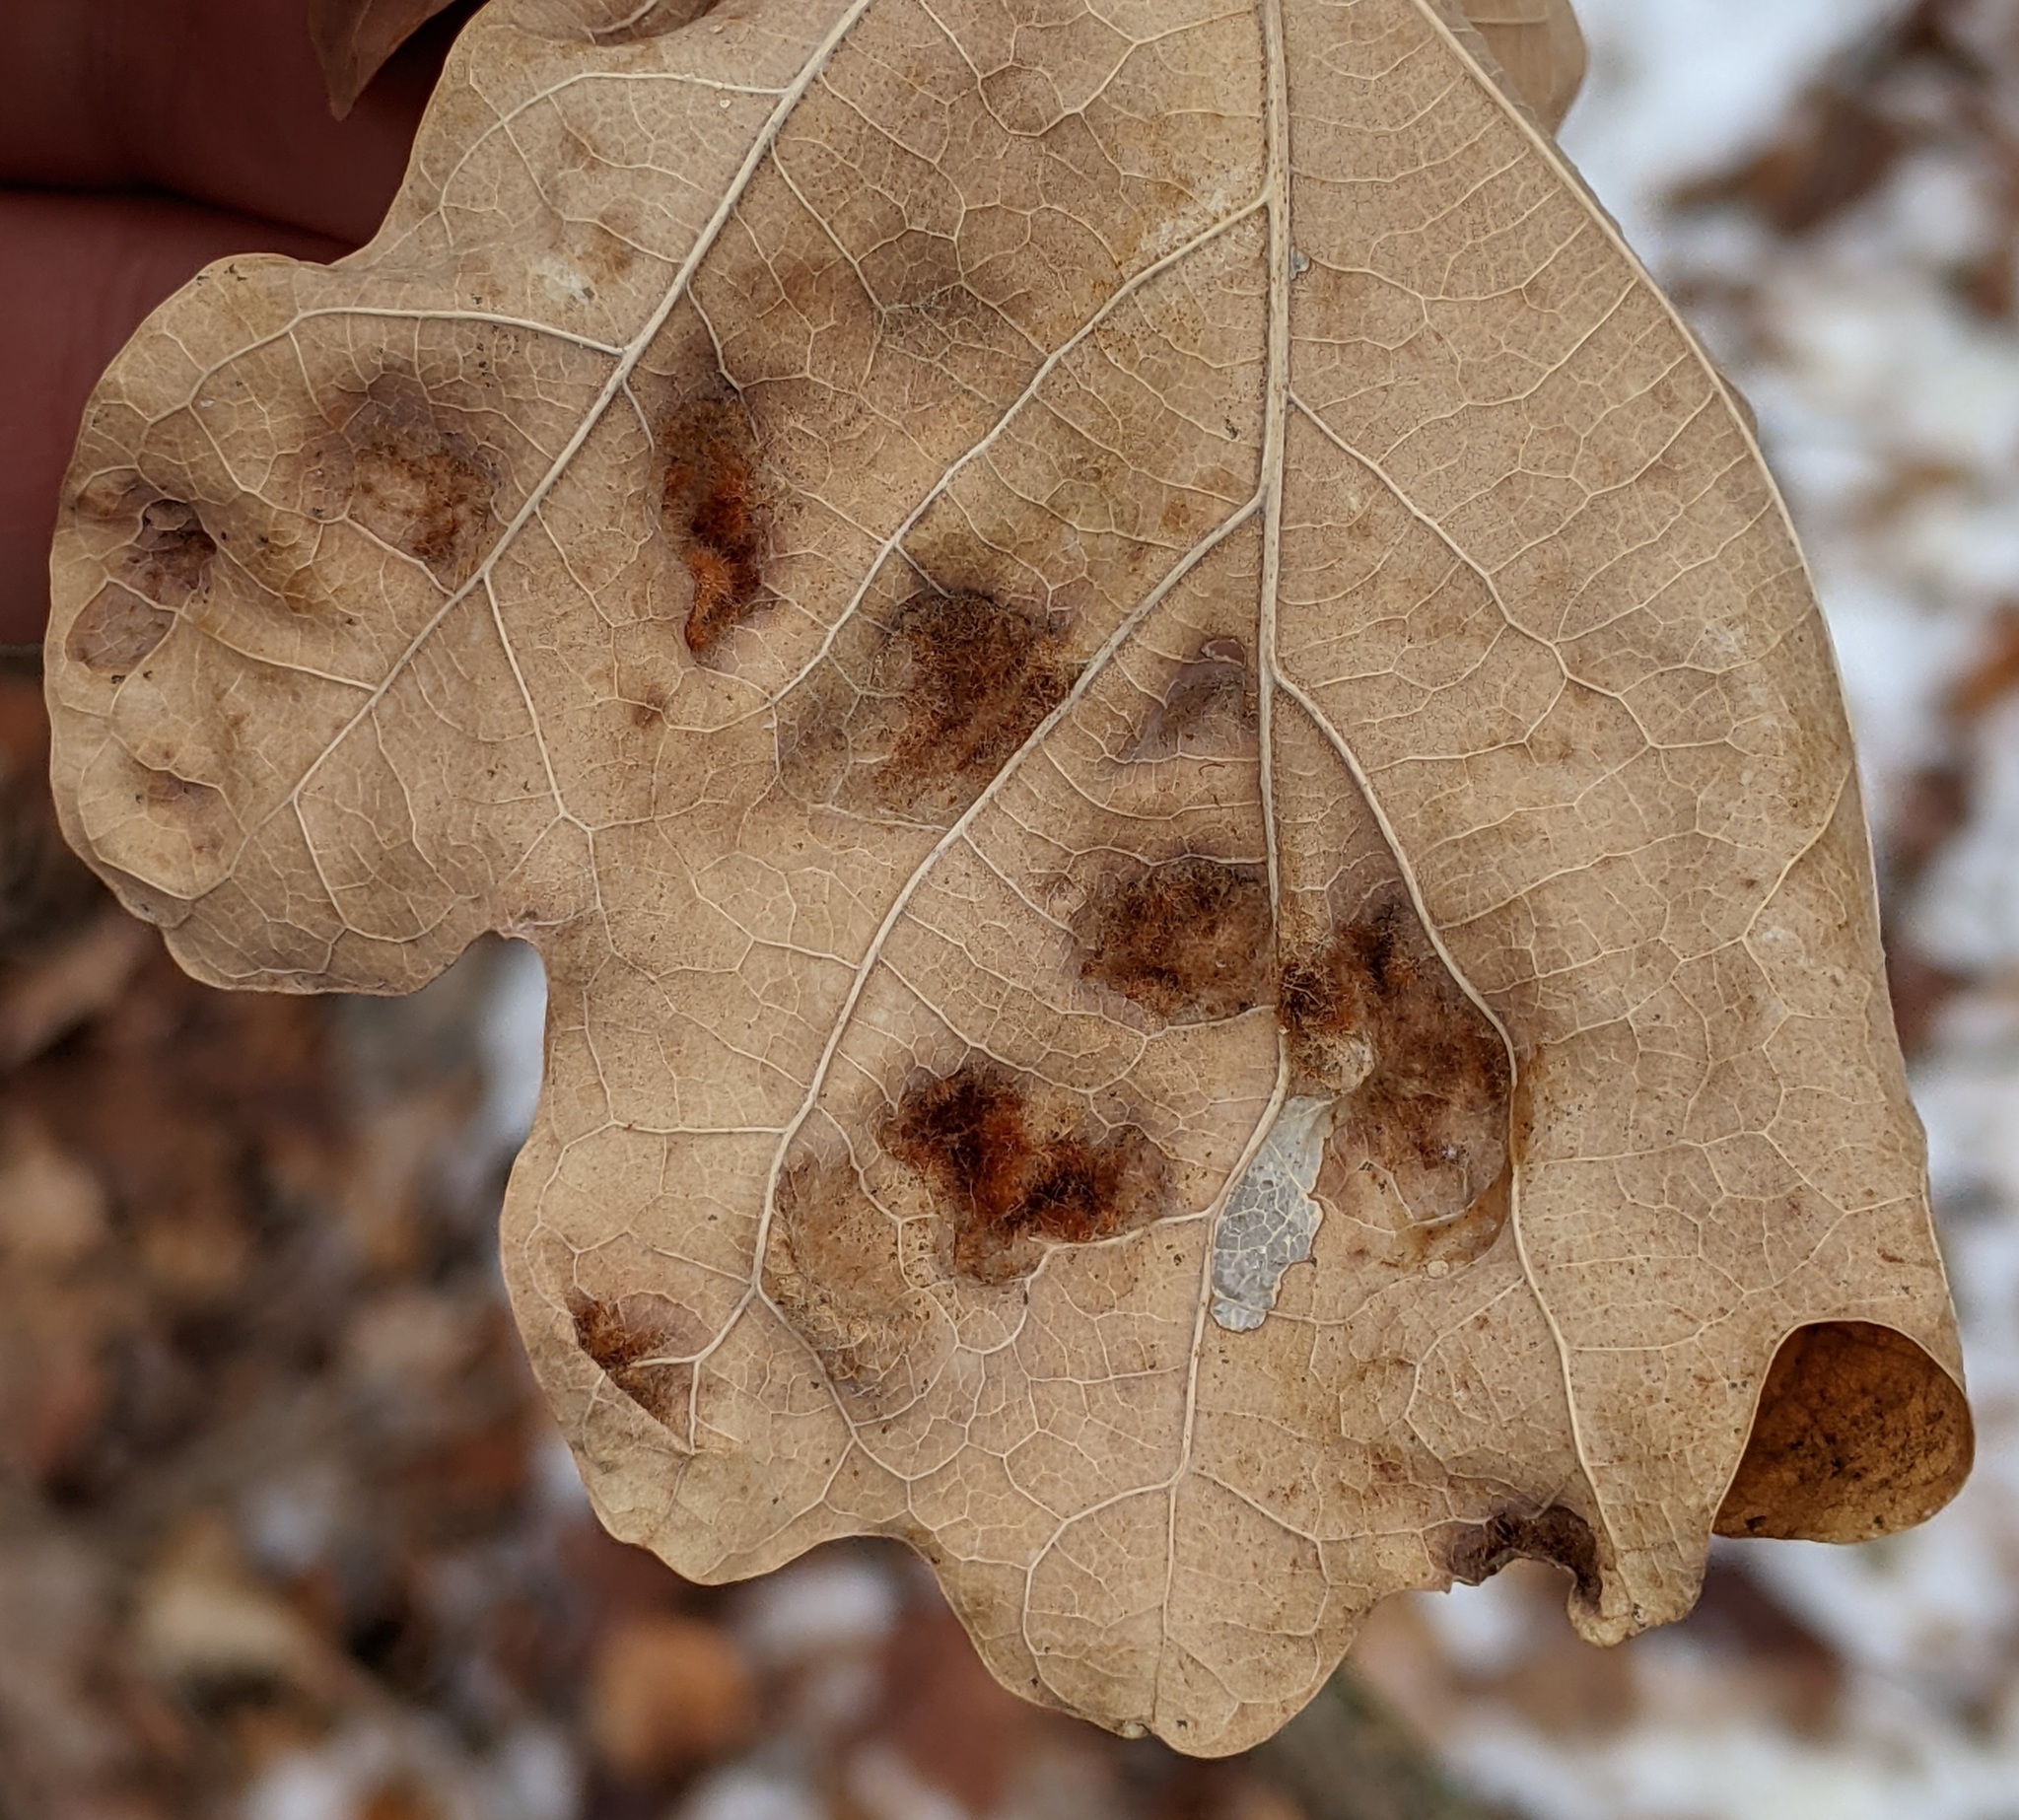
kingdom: Animalia
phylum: Arthropoda
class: Arachnida
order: Trombidiformes
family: Eriophyidae
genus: Aceria
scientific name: Aceria
